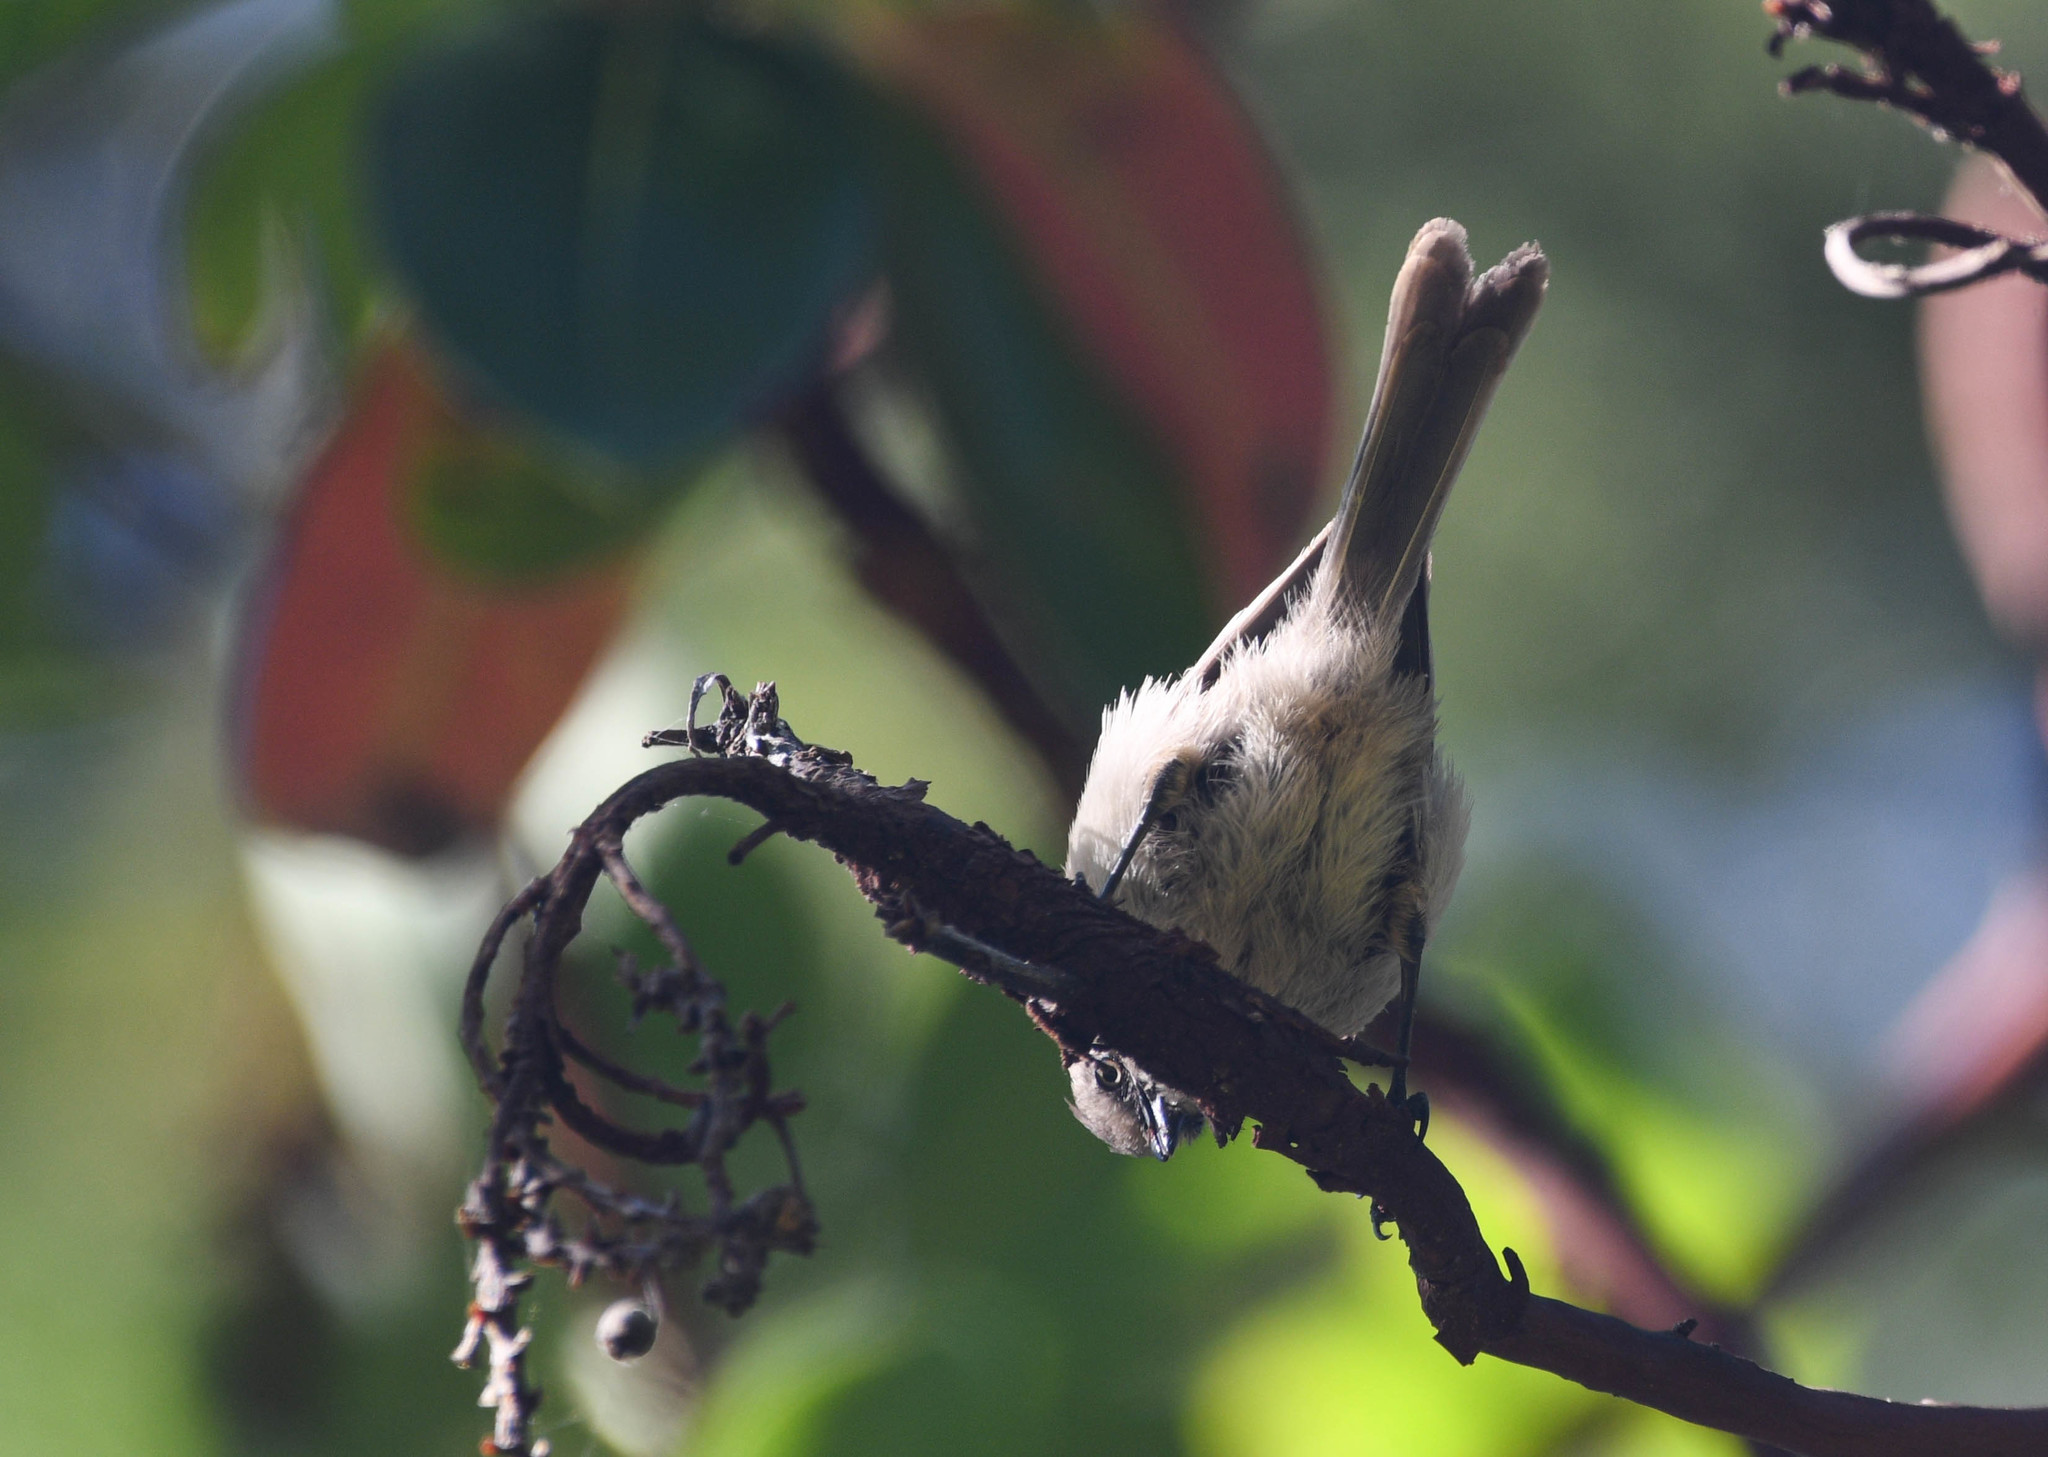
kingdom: Animalia
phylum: Chordata
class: Aves
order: Passeriformes
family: Aegithalidae
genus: Psaltriparus
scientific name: Psaltriparus minimus
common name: American bushtit
